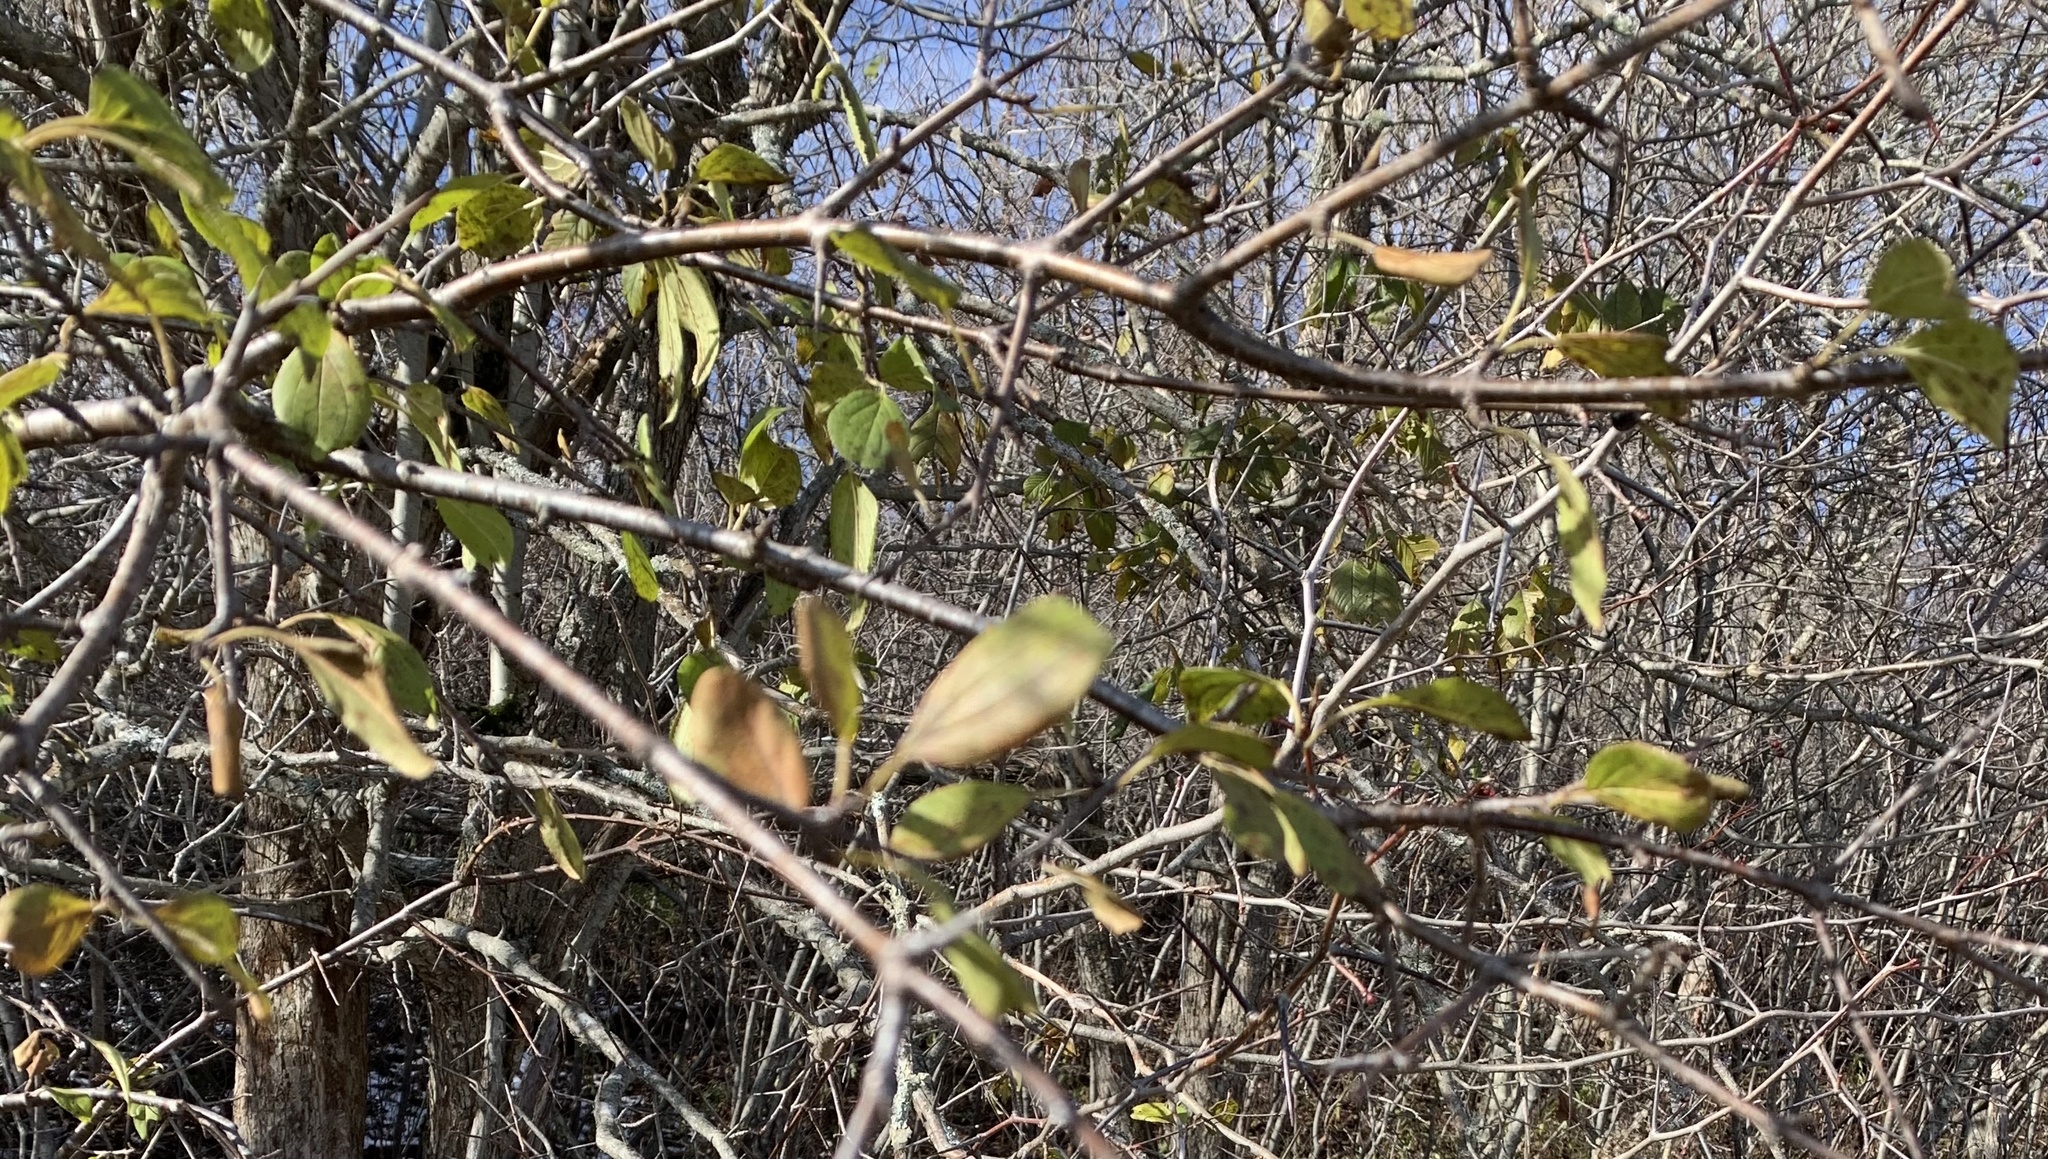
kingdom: Plantae
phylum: Tracheophyta
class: Magnoliopsida
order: Rosales
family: Rhamnaceae
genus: Rhamnus
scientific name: Rhamnus cathartica
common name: Common buckthorn
